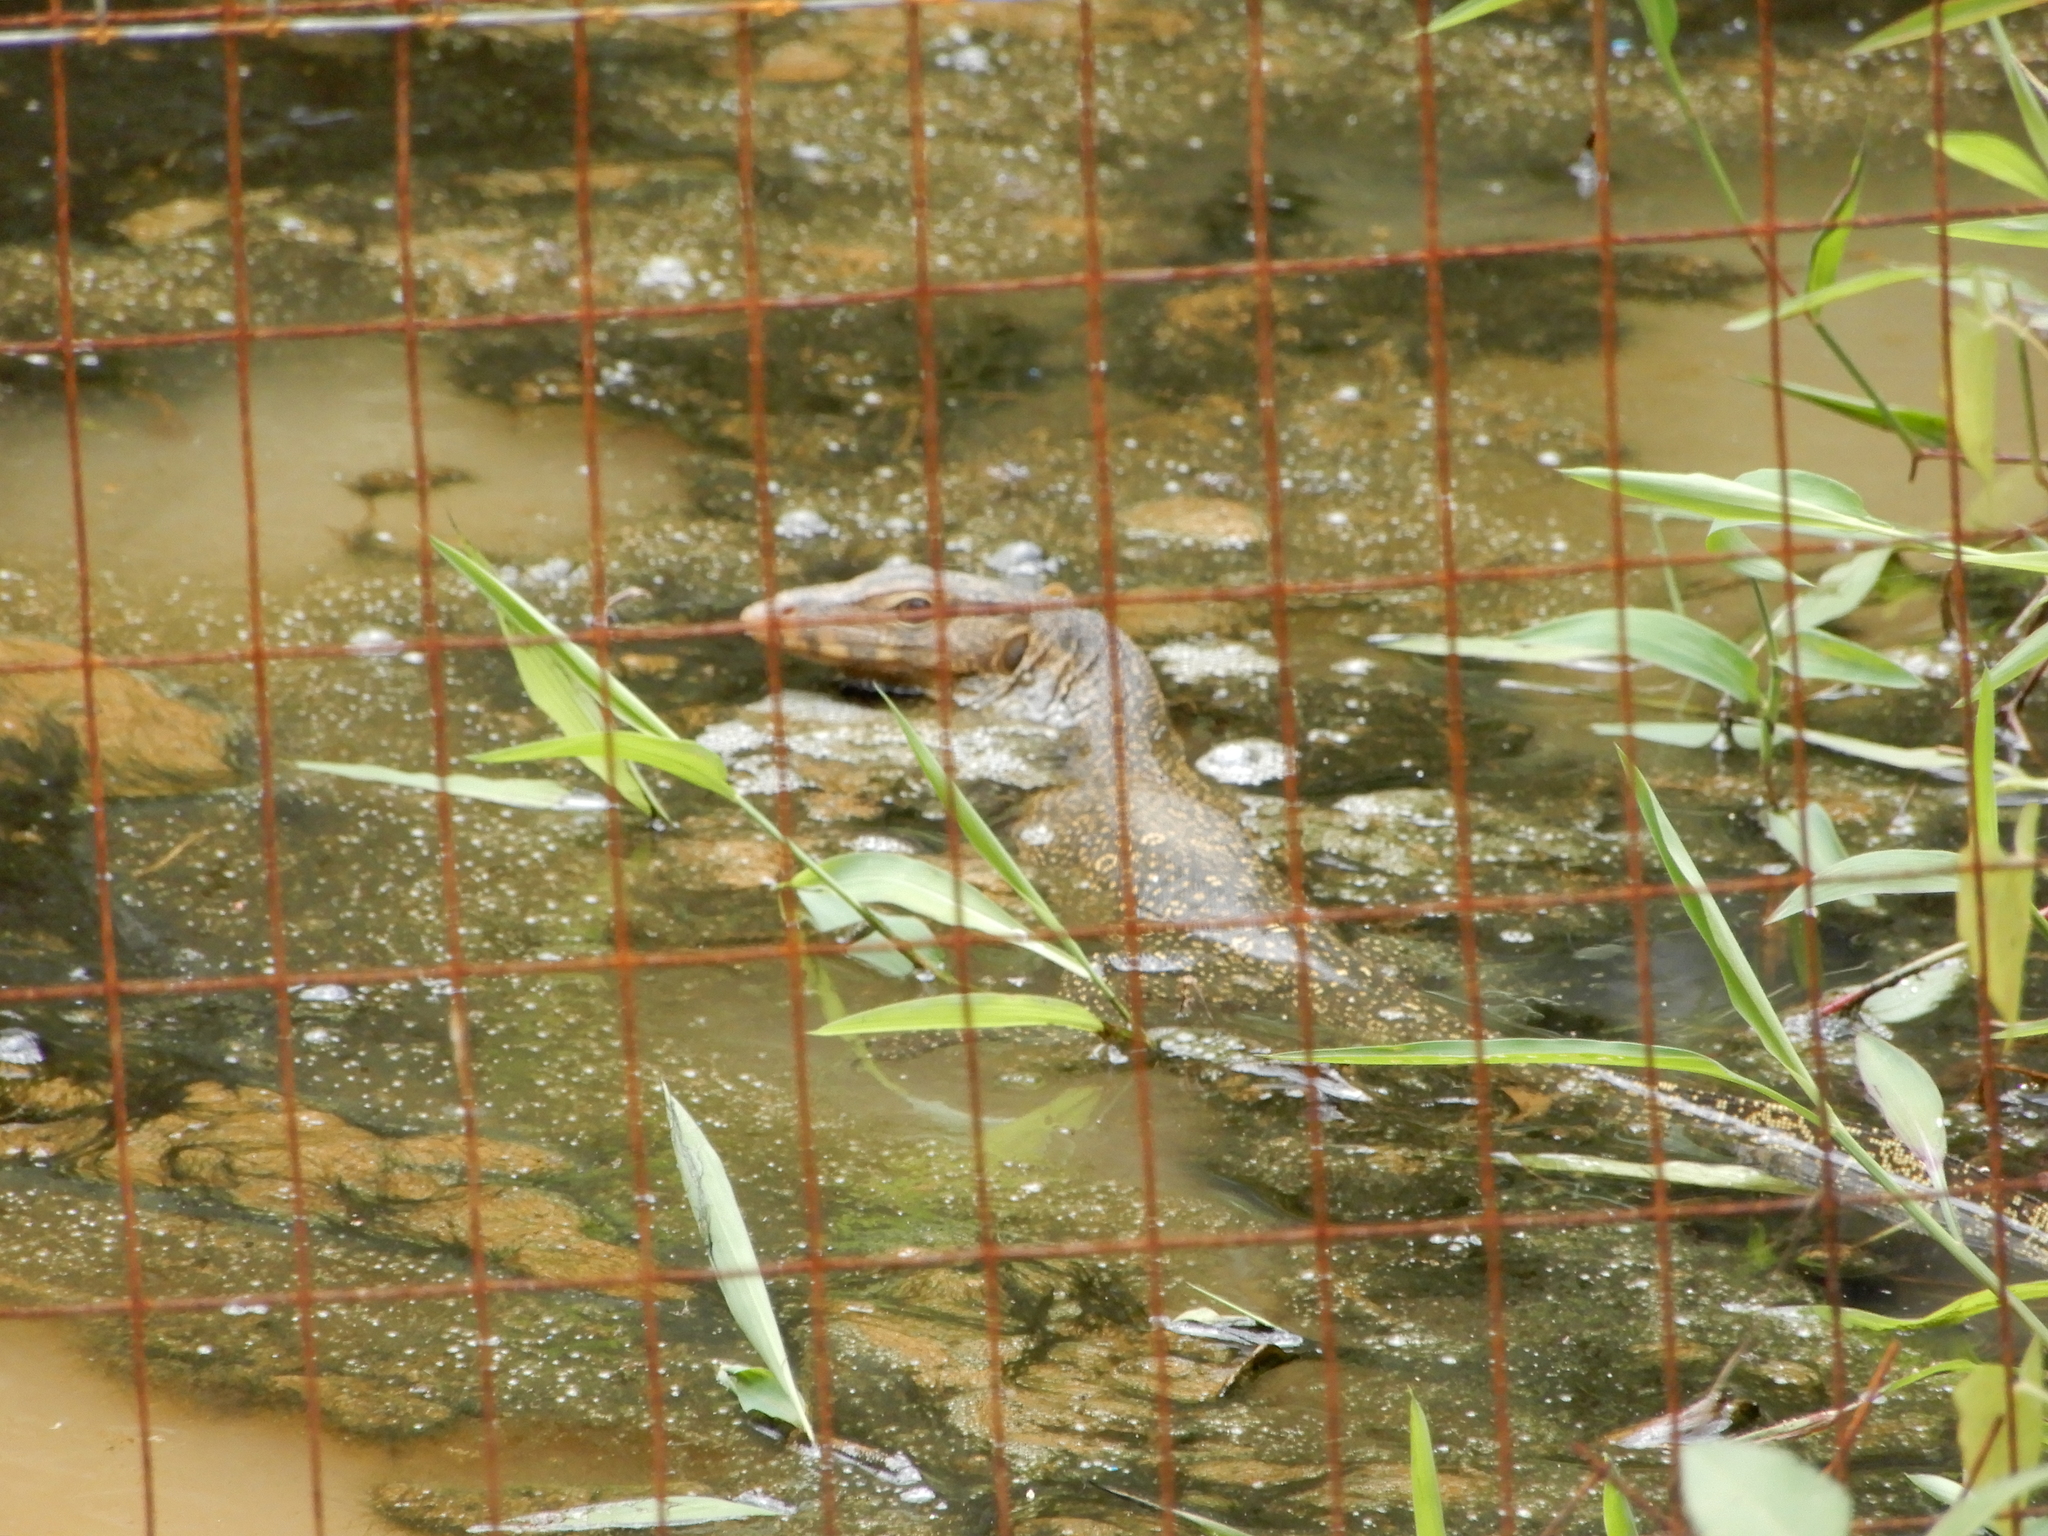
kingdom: Animalia
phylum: Chordata
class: Squamata
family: Varanidae
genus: Varanus
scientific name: Varanus salvator
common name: Common water monitor
